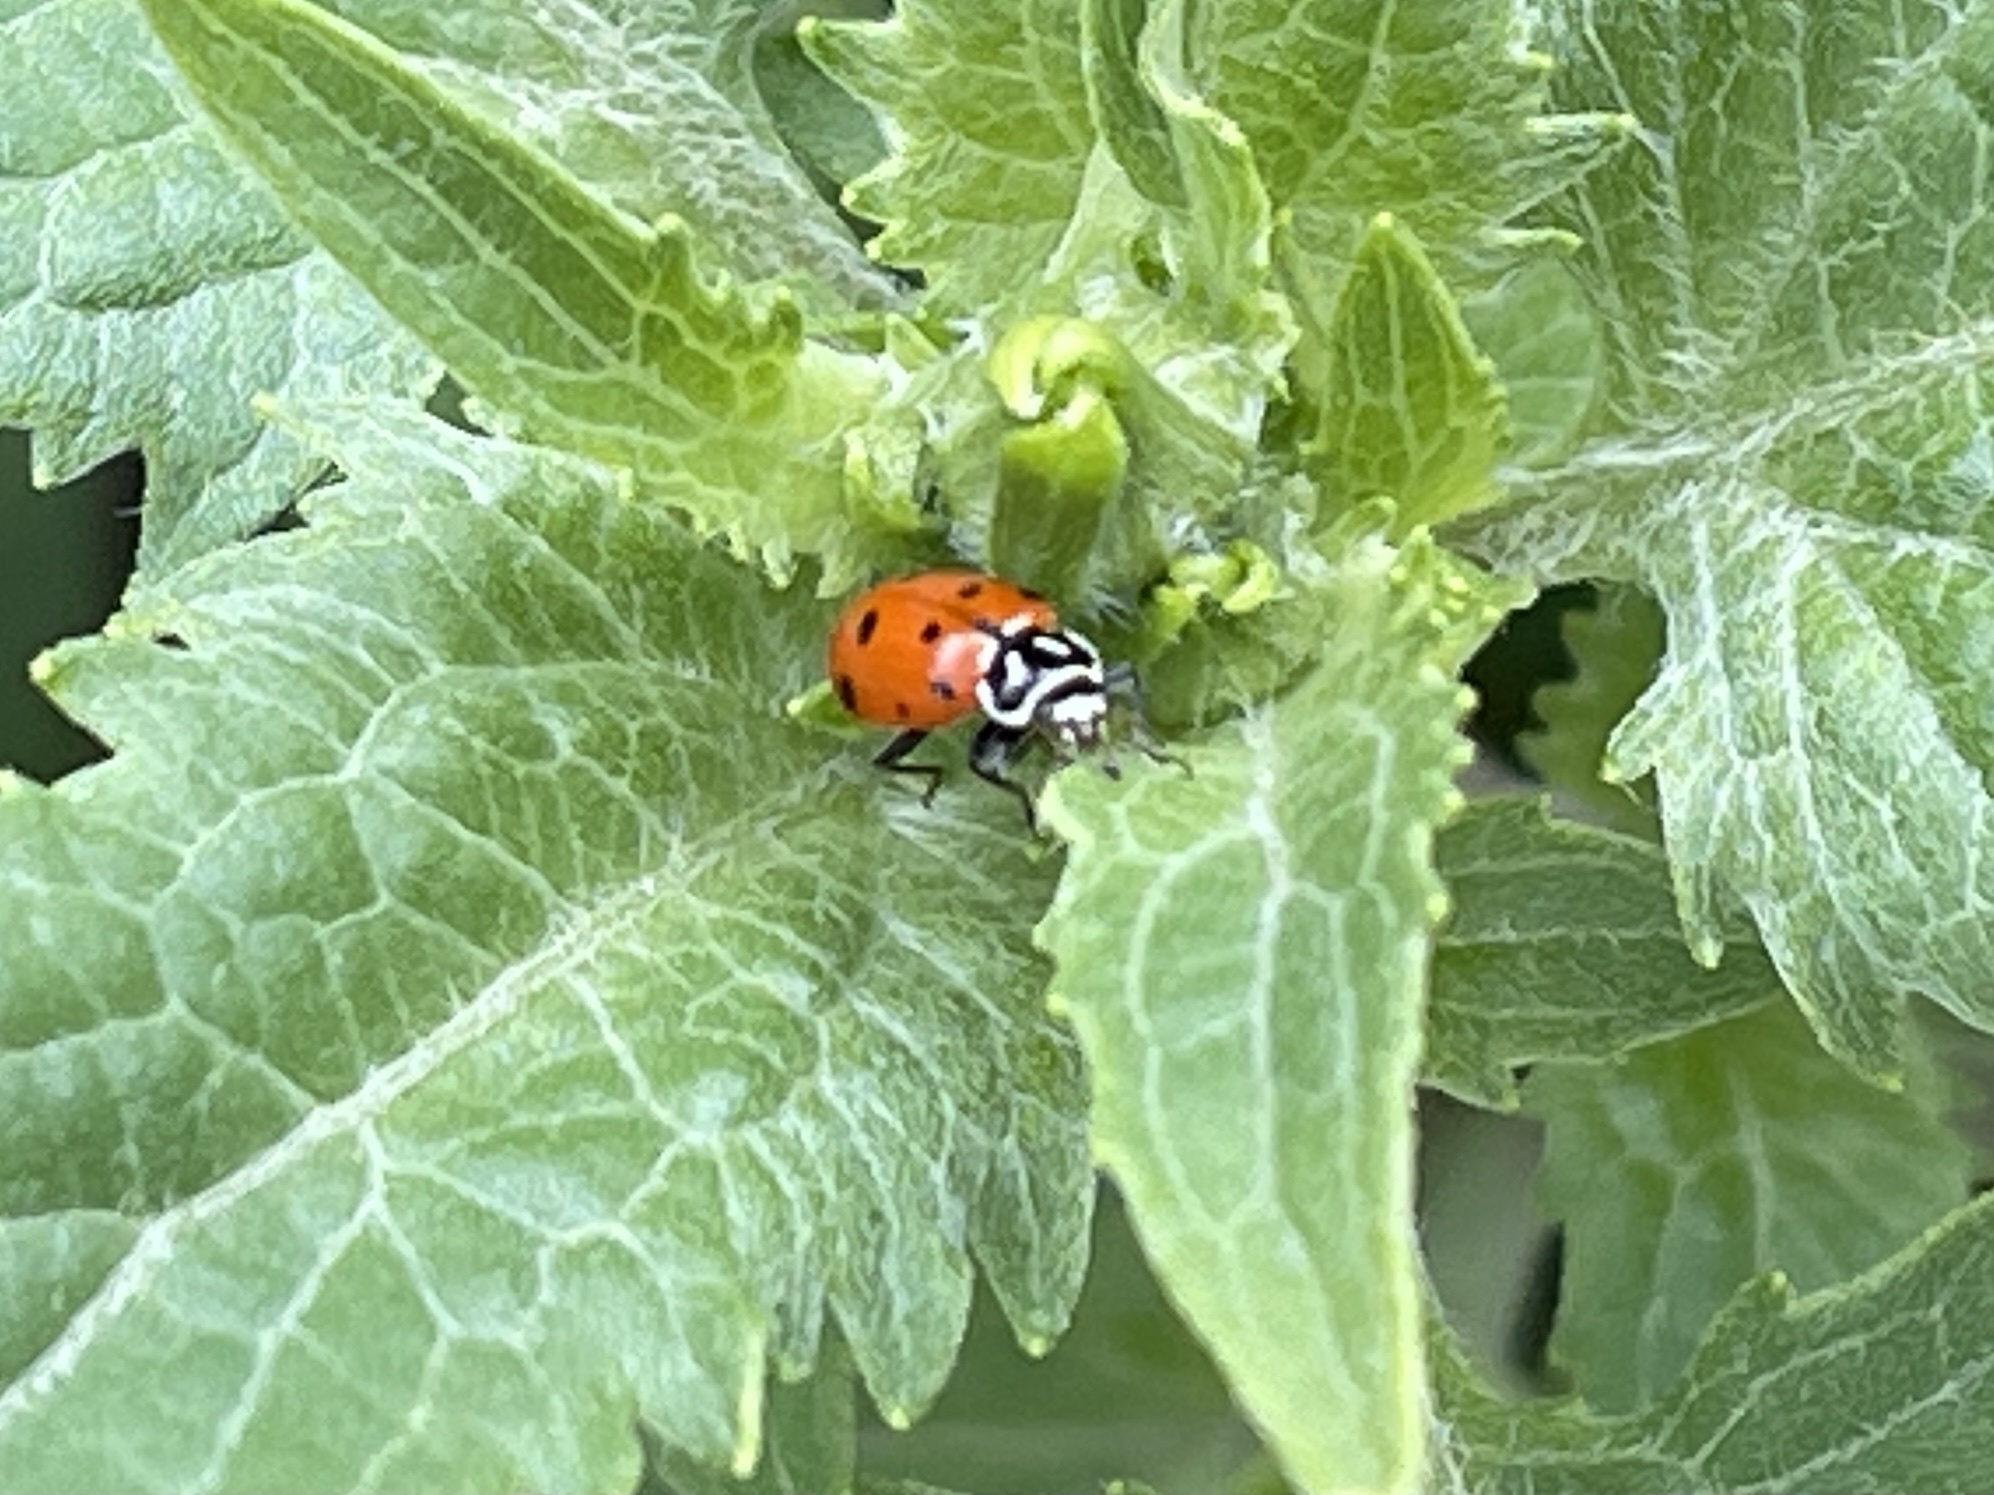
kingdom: Animalia
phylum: Arthropoda
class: Insecta
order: Coleoptera
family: Coccinellidae
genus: Hippodamia
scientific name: Hippodamia convergens
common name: Convergent lady beetle
